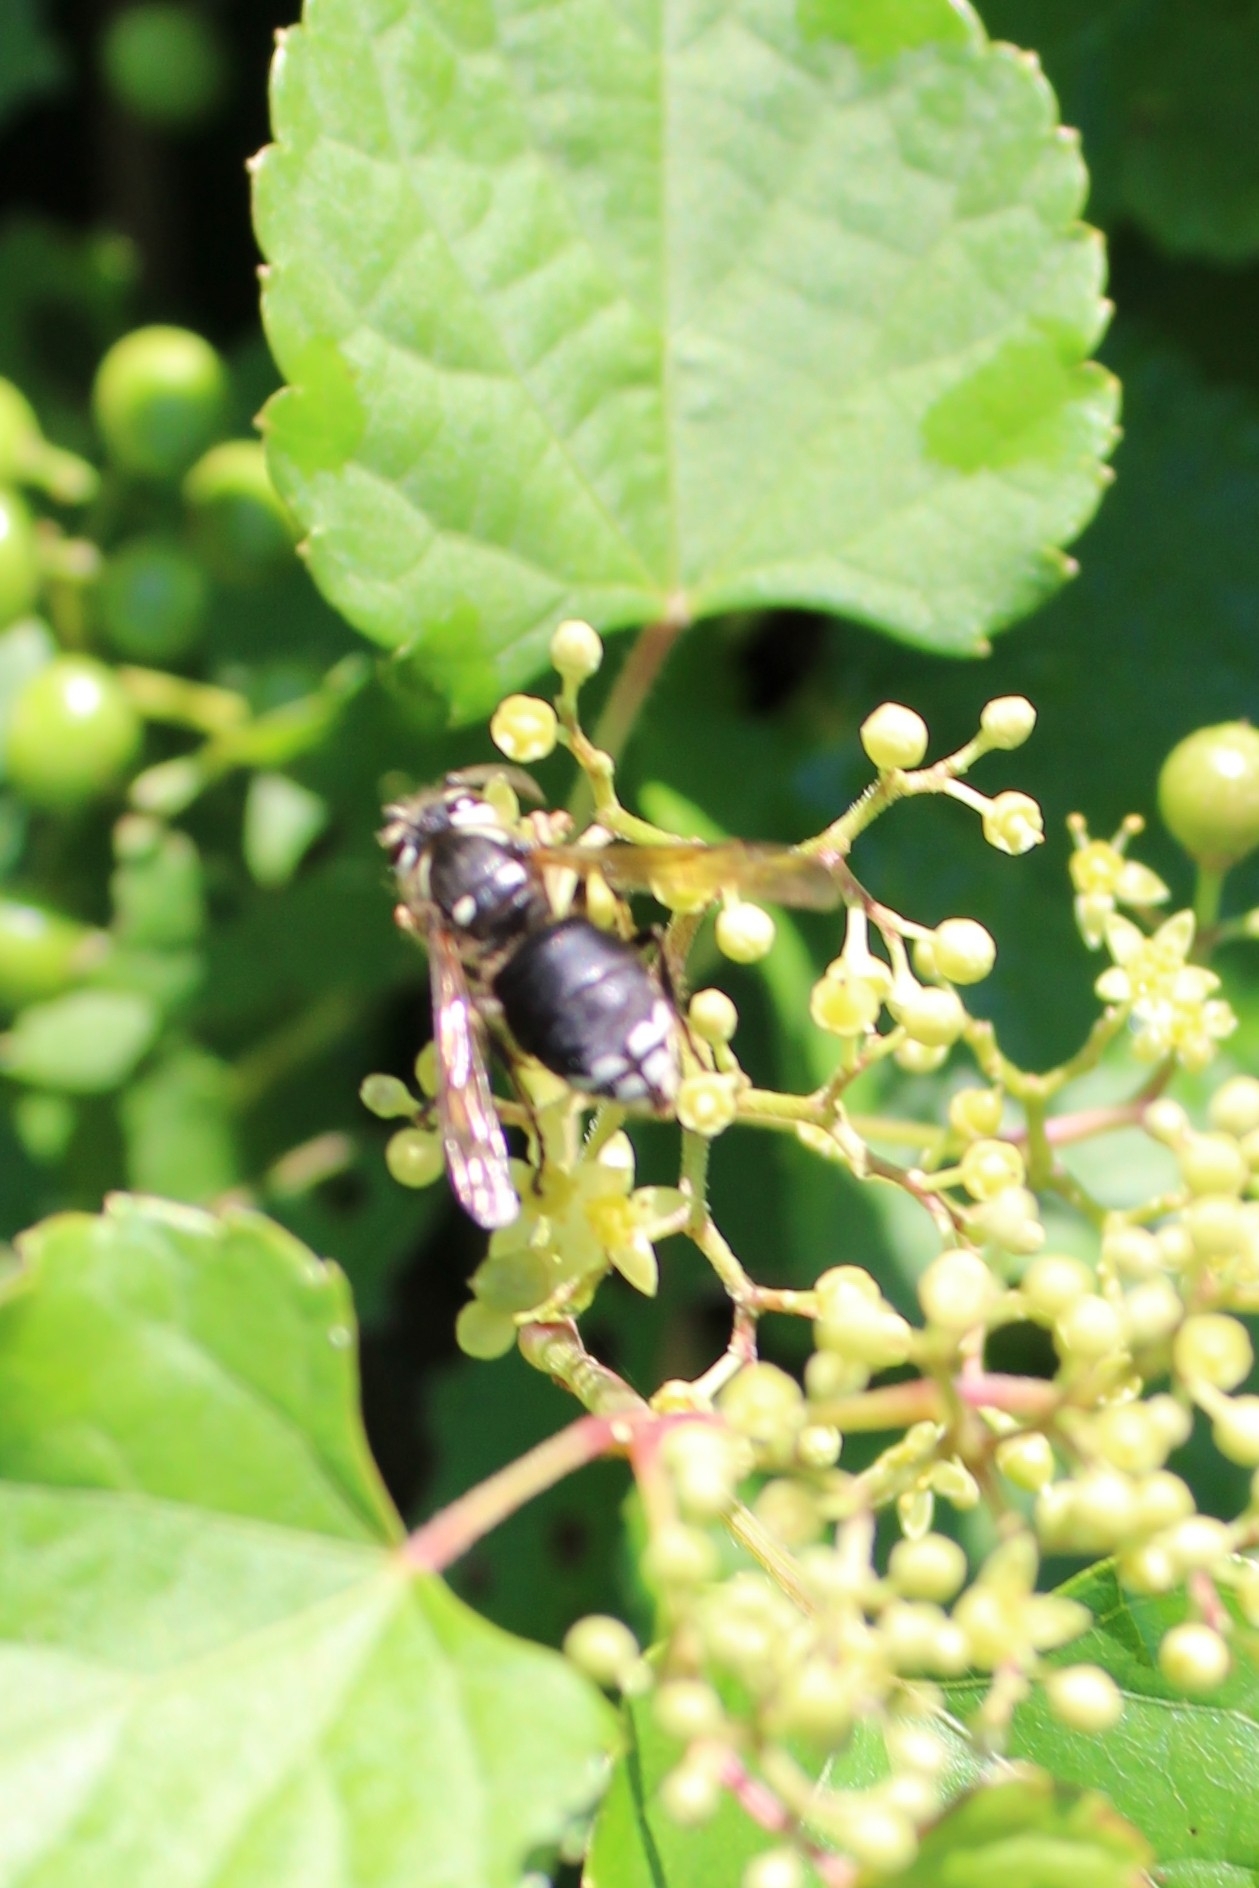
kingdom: Animalia
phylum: Arthropoda
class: Insecta
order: Hymenoptera
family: Vespidae
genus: Dolichovespula
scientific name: Dolichovespula maculata
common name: Bald-faced hornet
